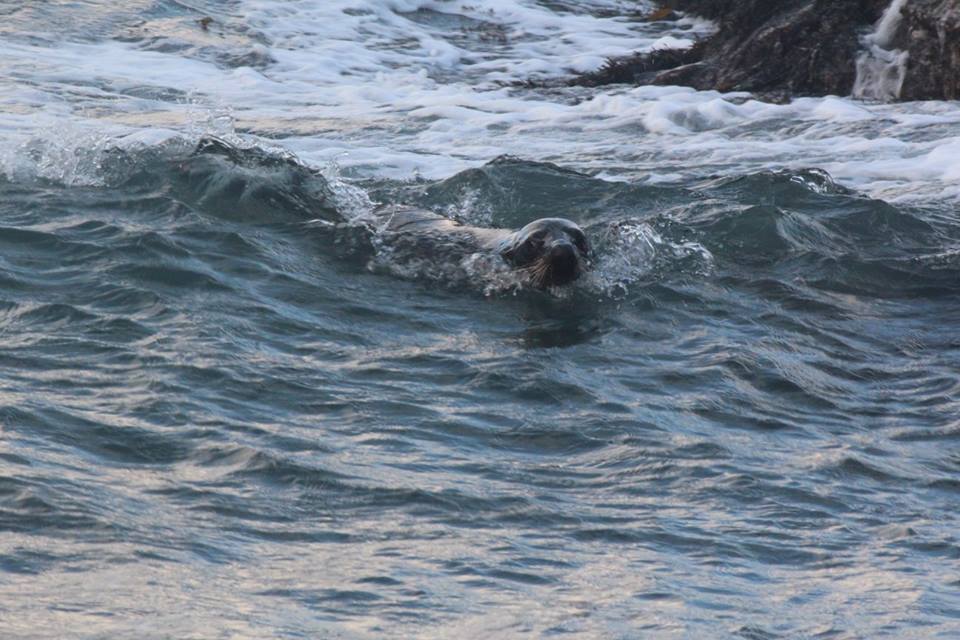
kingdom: Animalia
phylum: Chordata
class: Mammalia
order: Carnivora
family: Otariidae
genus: Arctocephalus
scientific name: Arctocephalus forsteri
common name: New zealand fur seal
